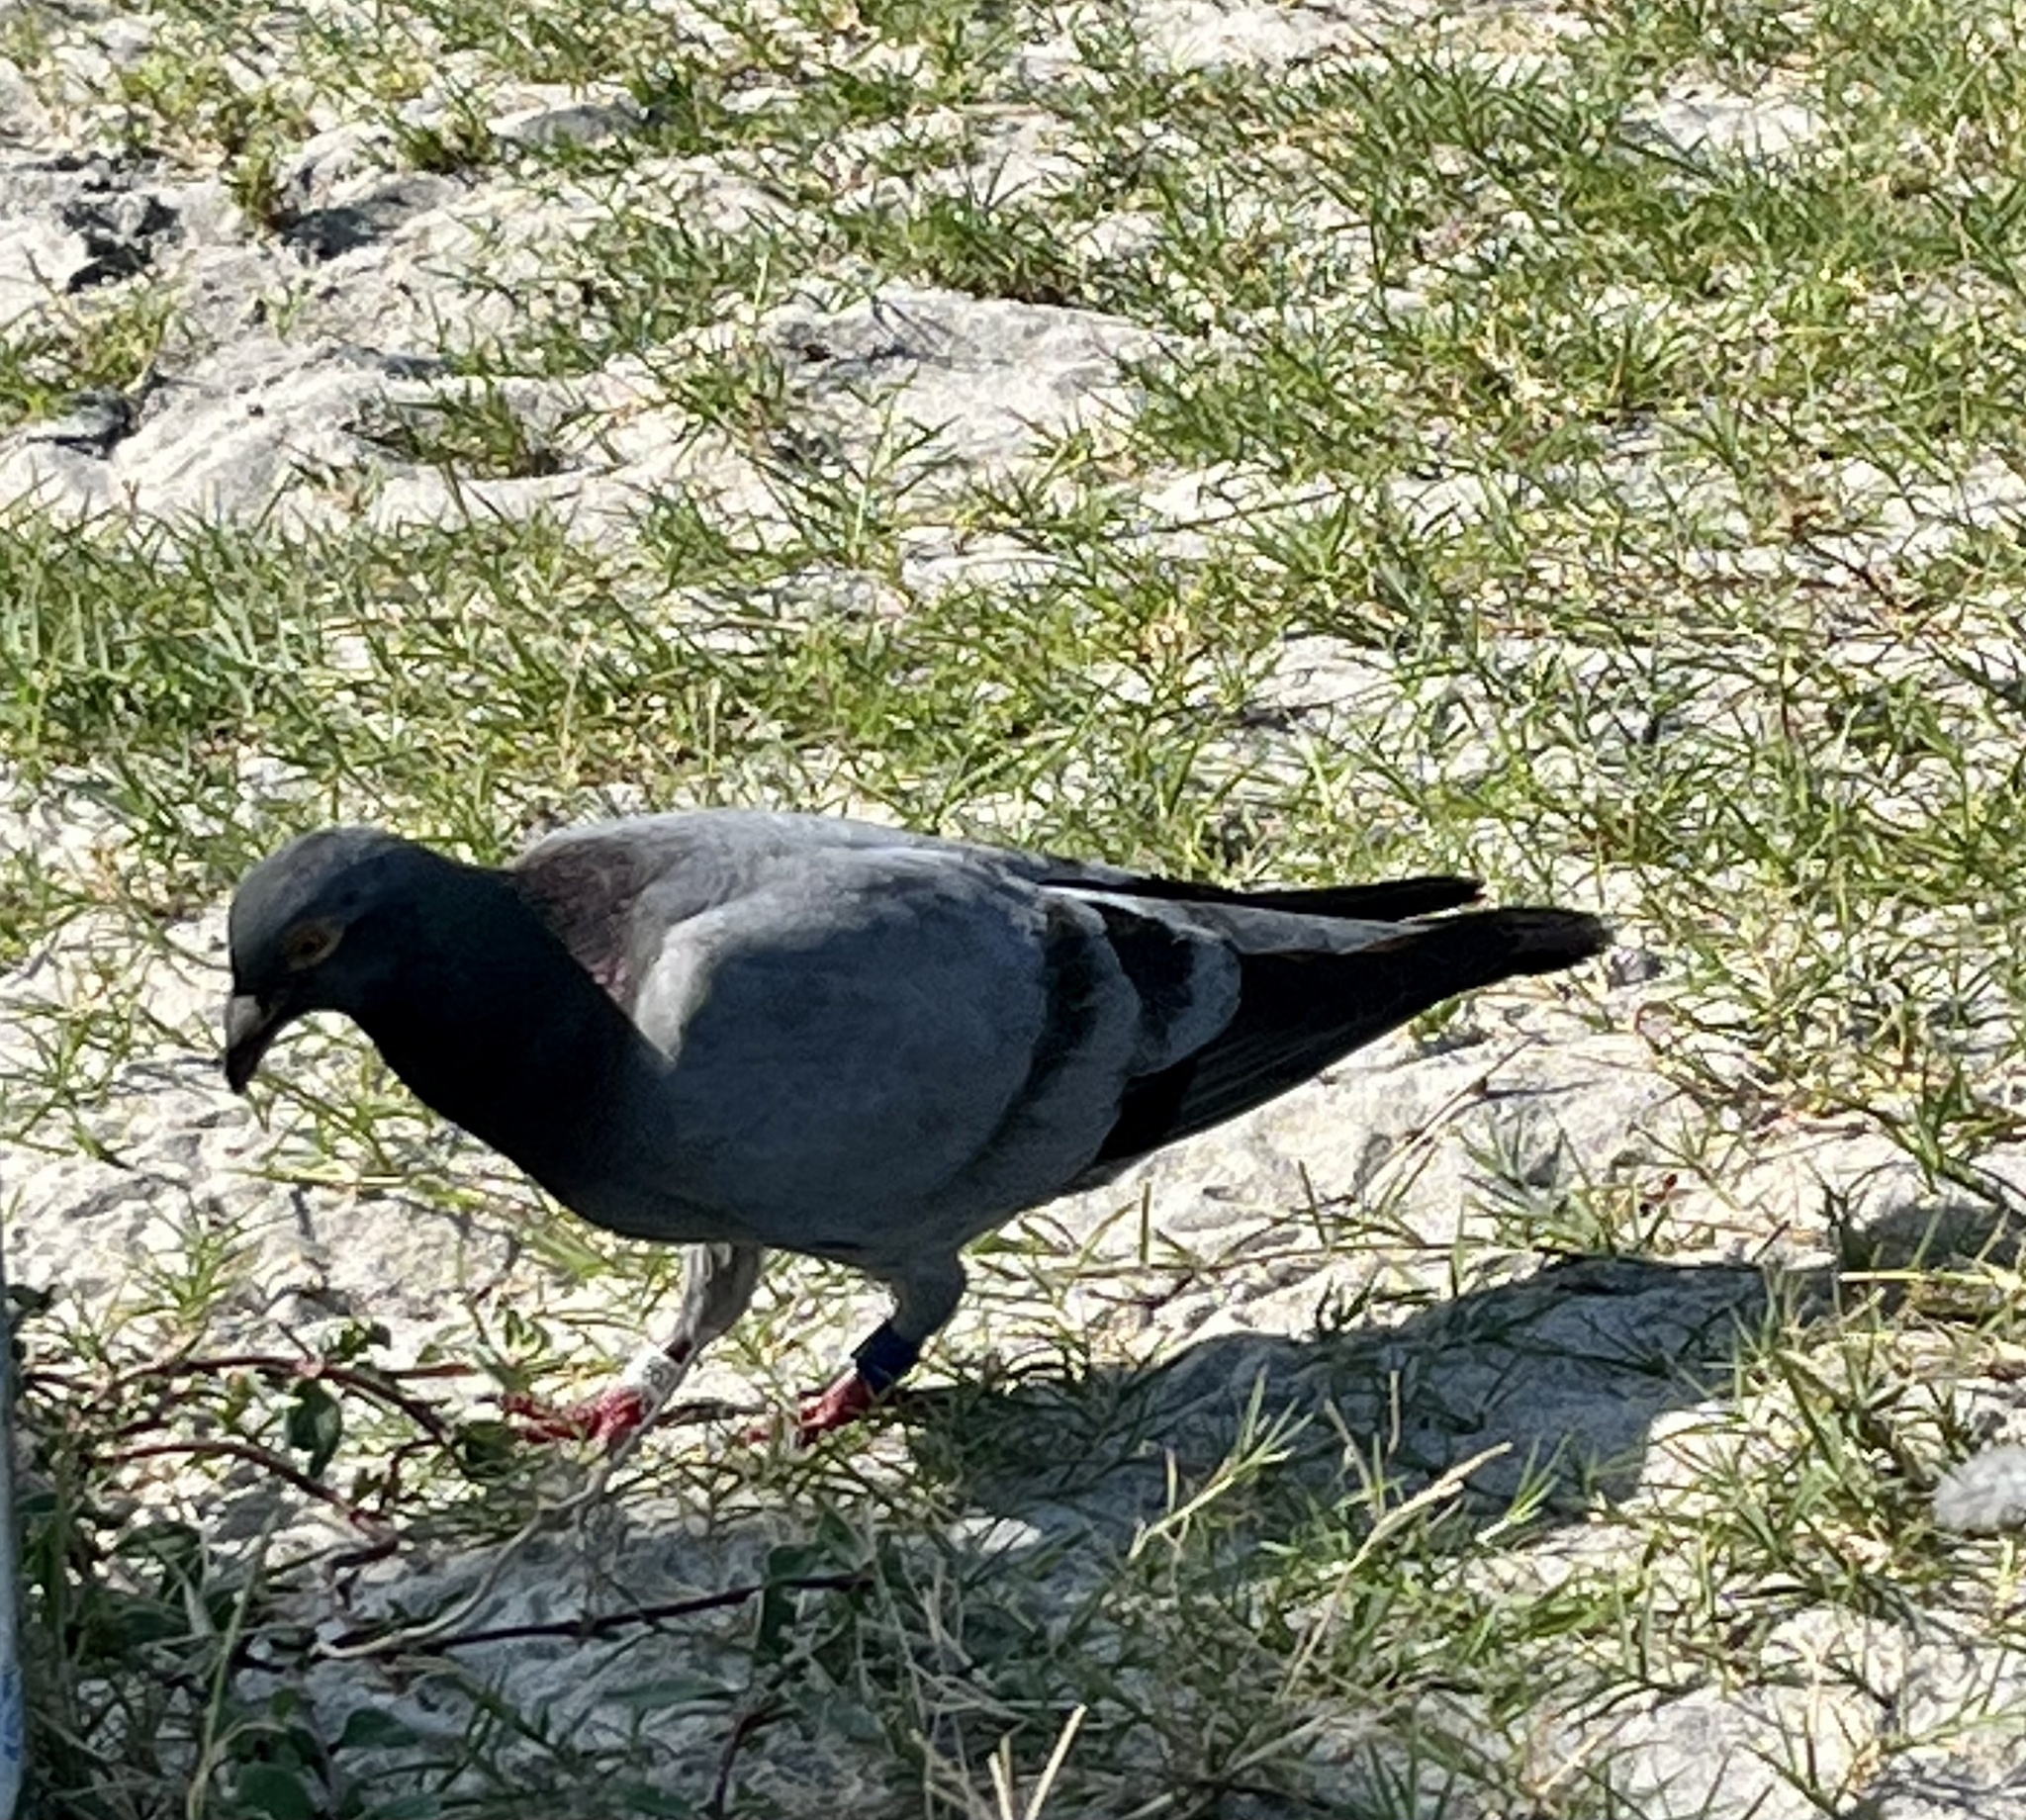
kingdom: Animalia
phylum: Chordata
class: Aves
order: Columbiformes
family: Columbidae
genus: Columba
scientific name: Columba livia
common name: Rock pigeon
